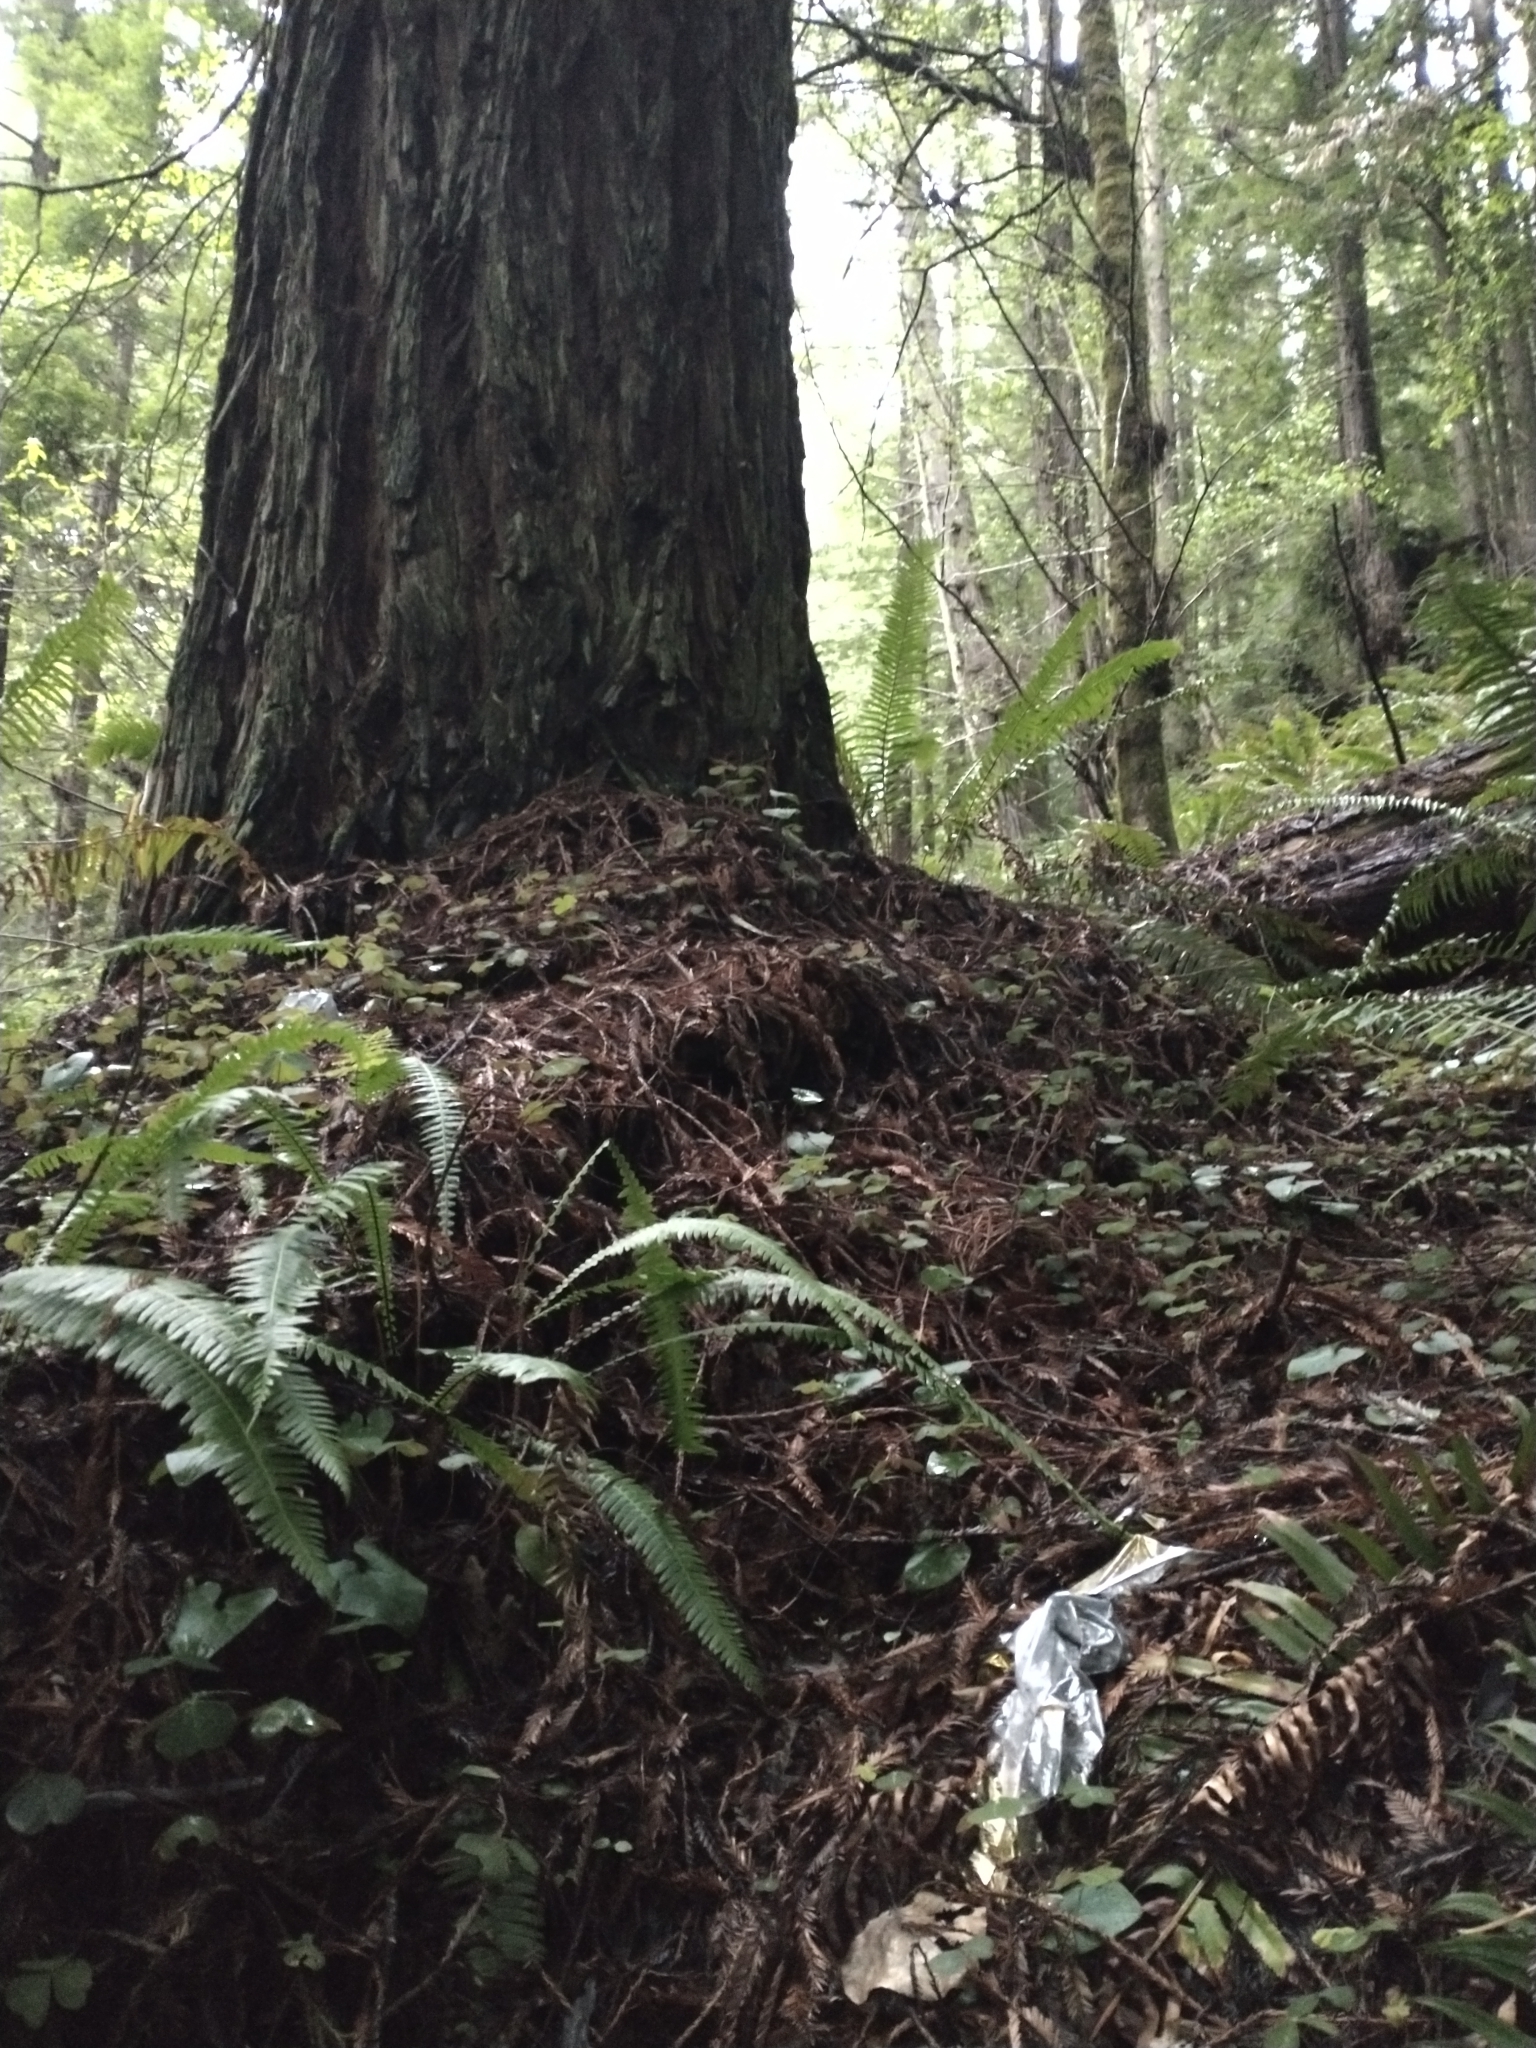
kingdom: Plantae
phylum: Tracheophyta
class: Pinopsida
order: Pinales
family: Cupressaceae
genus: Sequoia
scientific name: Sequoia sempervirens
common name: Coast redwood
